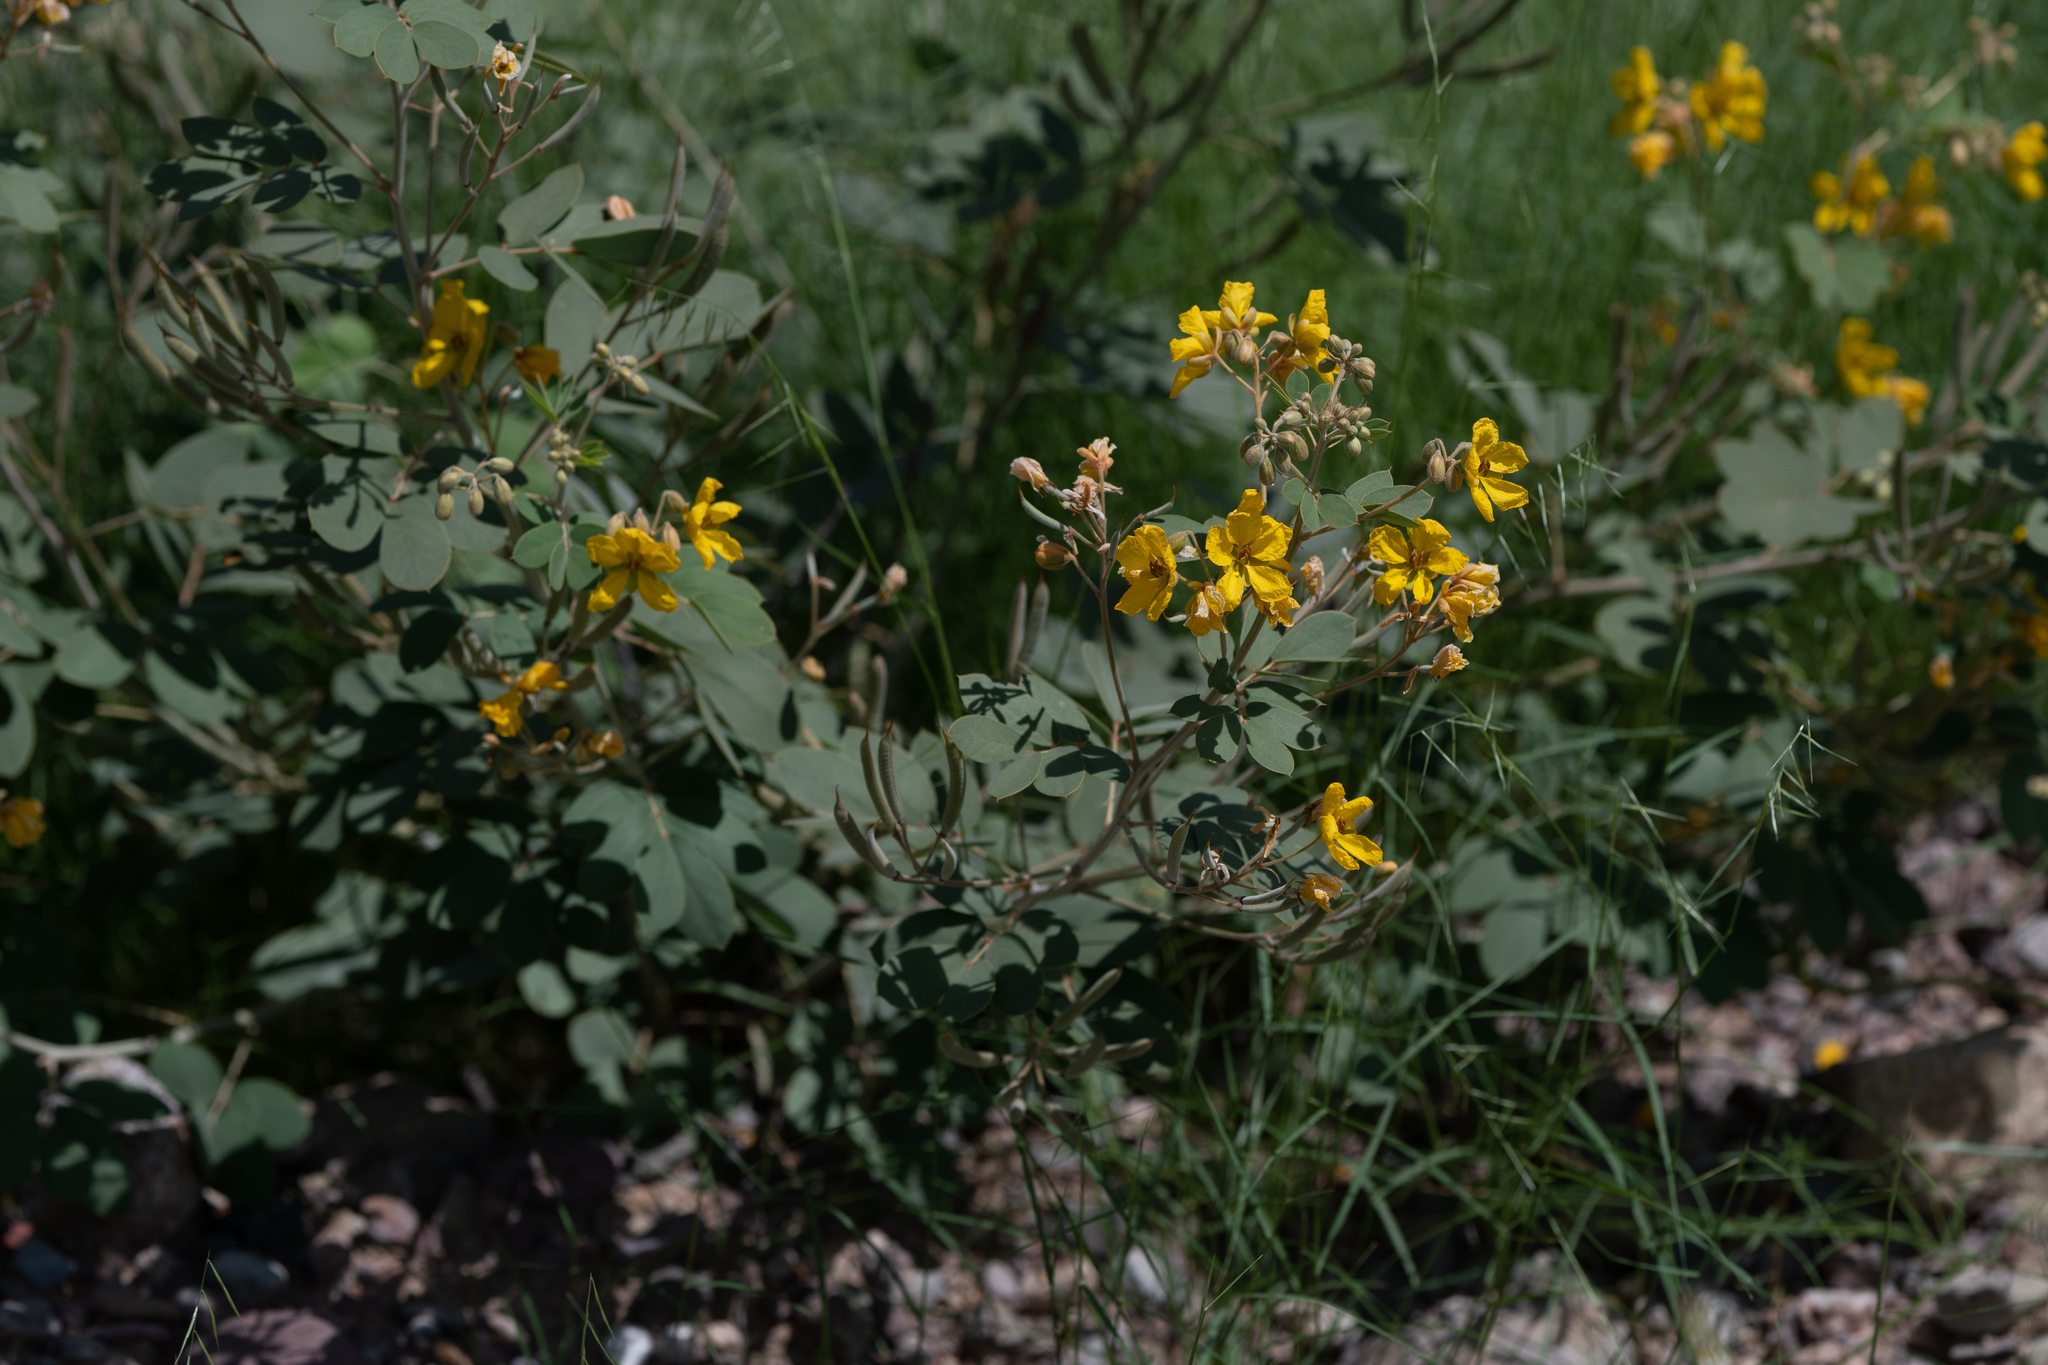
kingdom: Plantae
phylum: Tracheophyta
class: Magnoliopsida
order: Fabales
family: Fabaceae
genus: Senna
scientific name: Senna covesii
